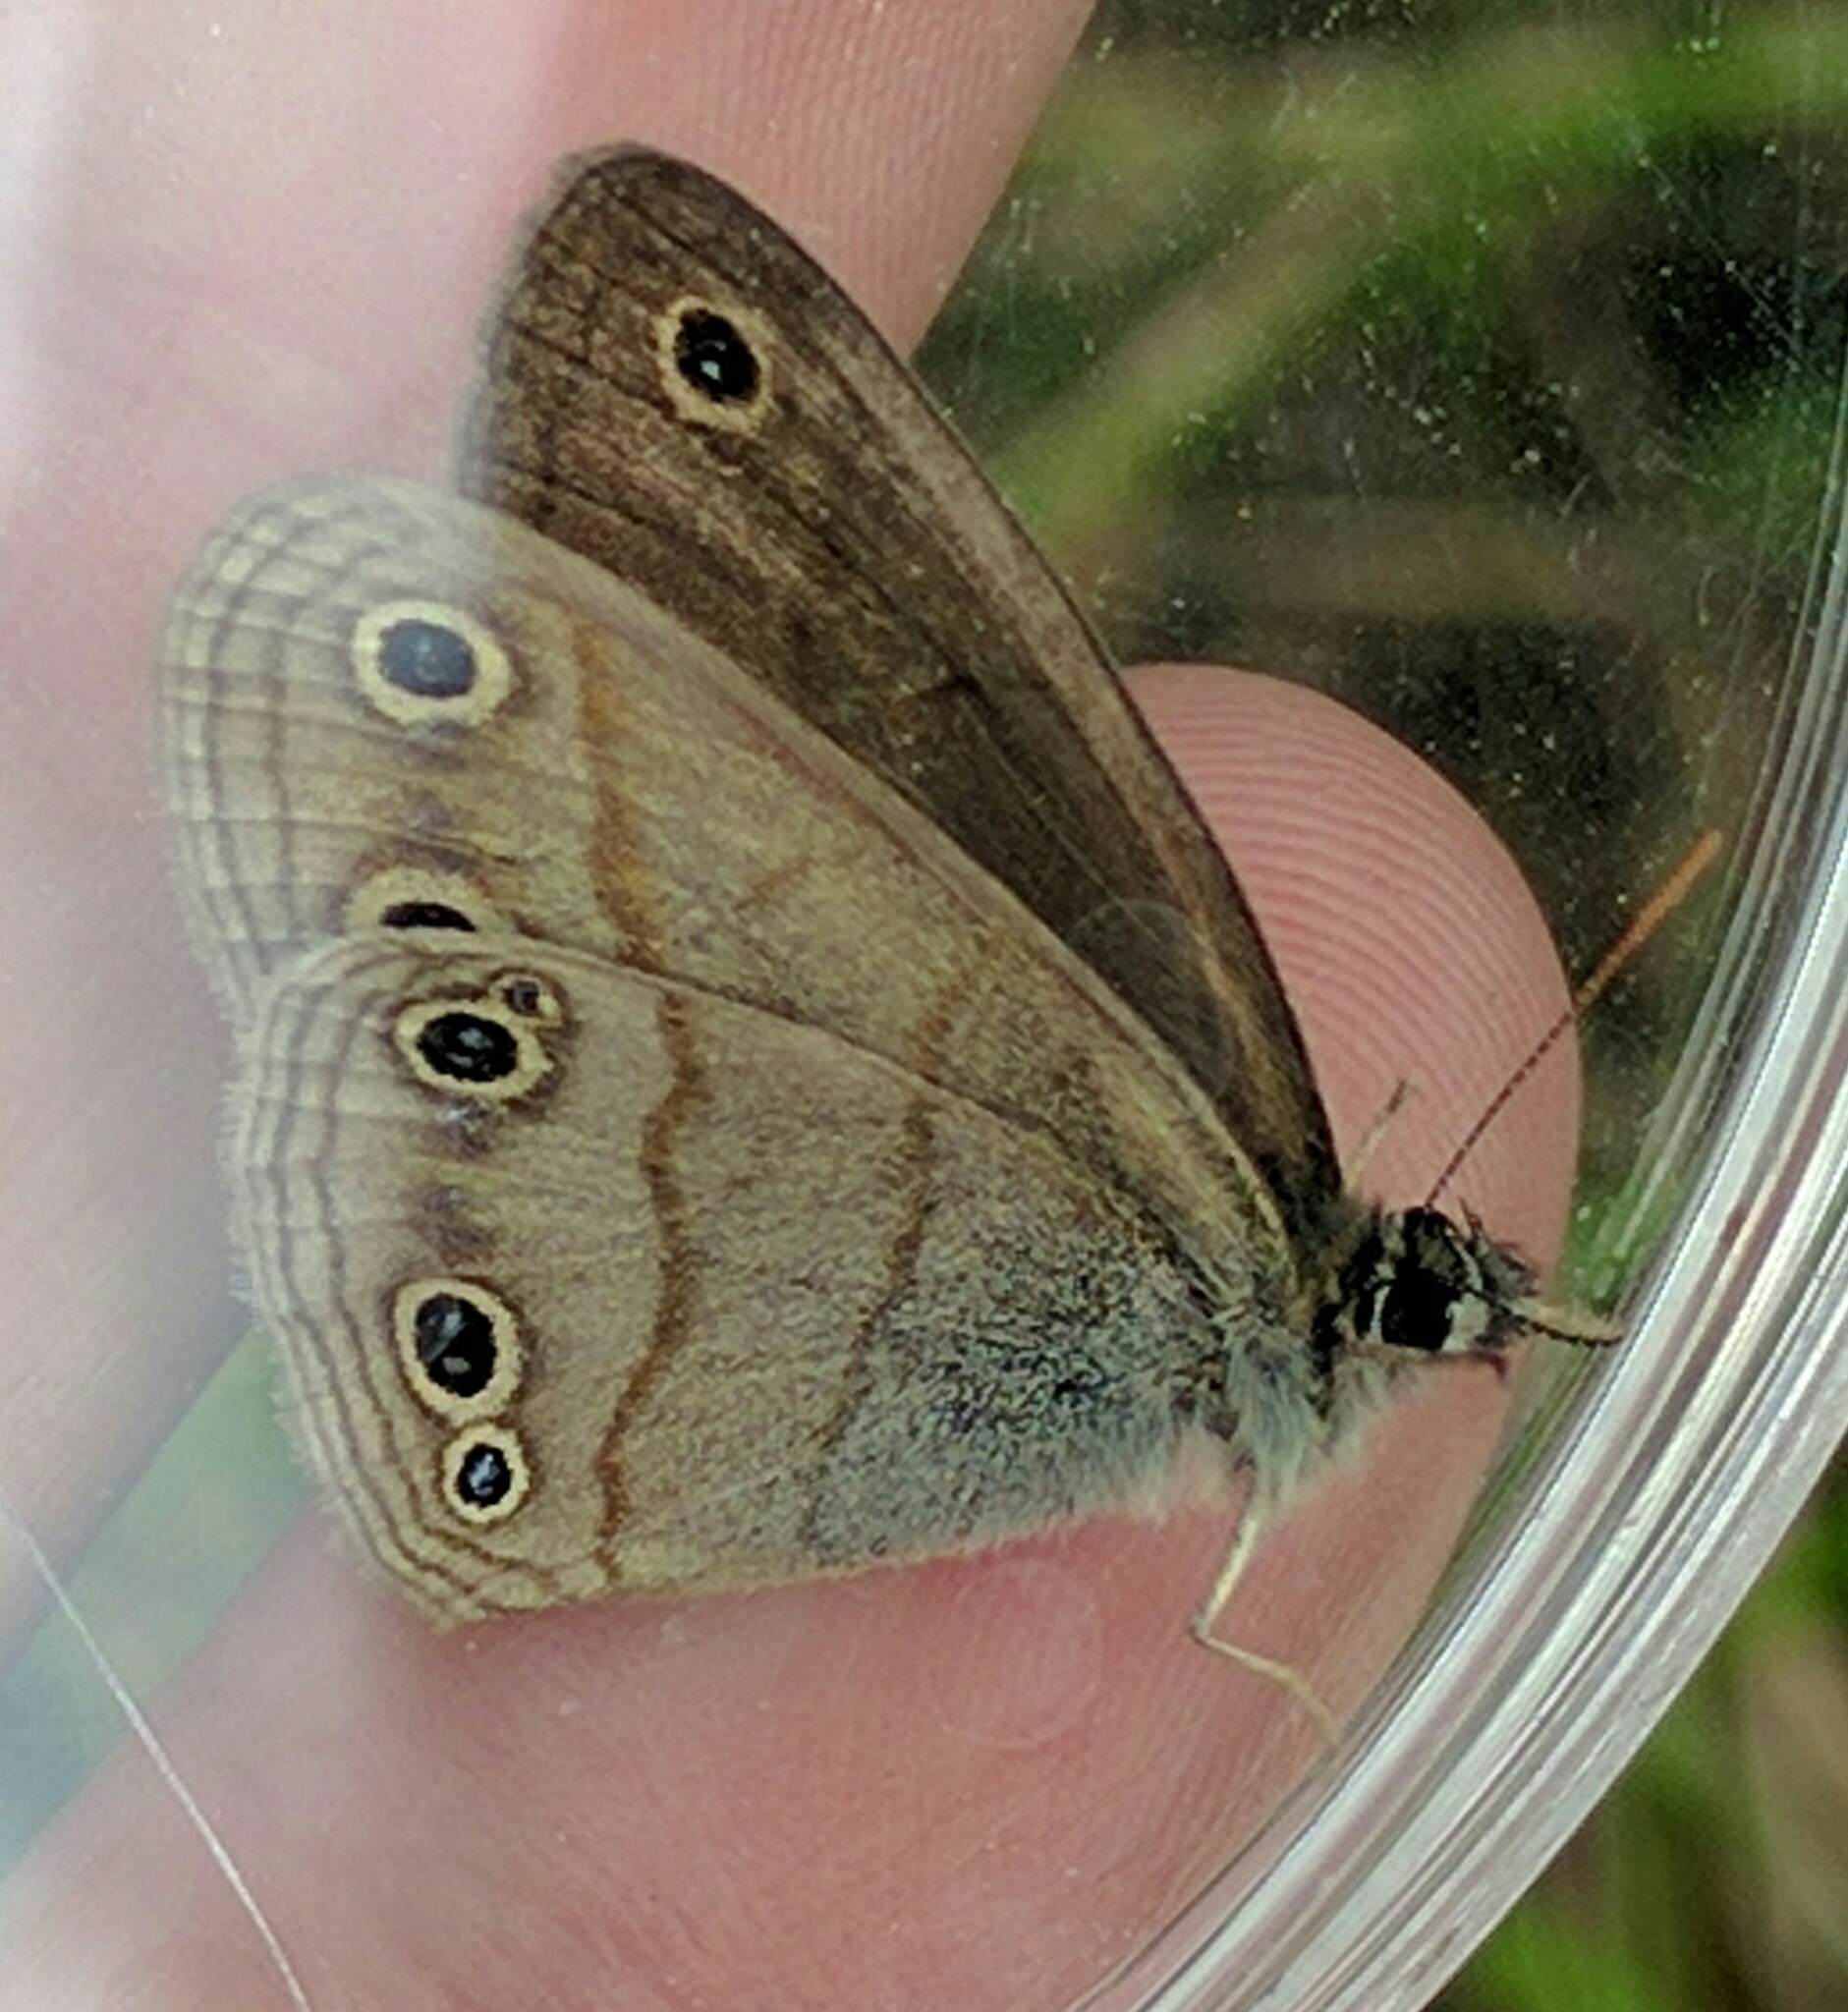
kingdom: Animalia
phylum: Arthropoda
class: Insecta
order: Lepidoptera
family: Nymphalidae
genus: Euptychia
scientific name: Euptychia cymela
